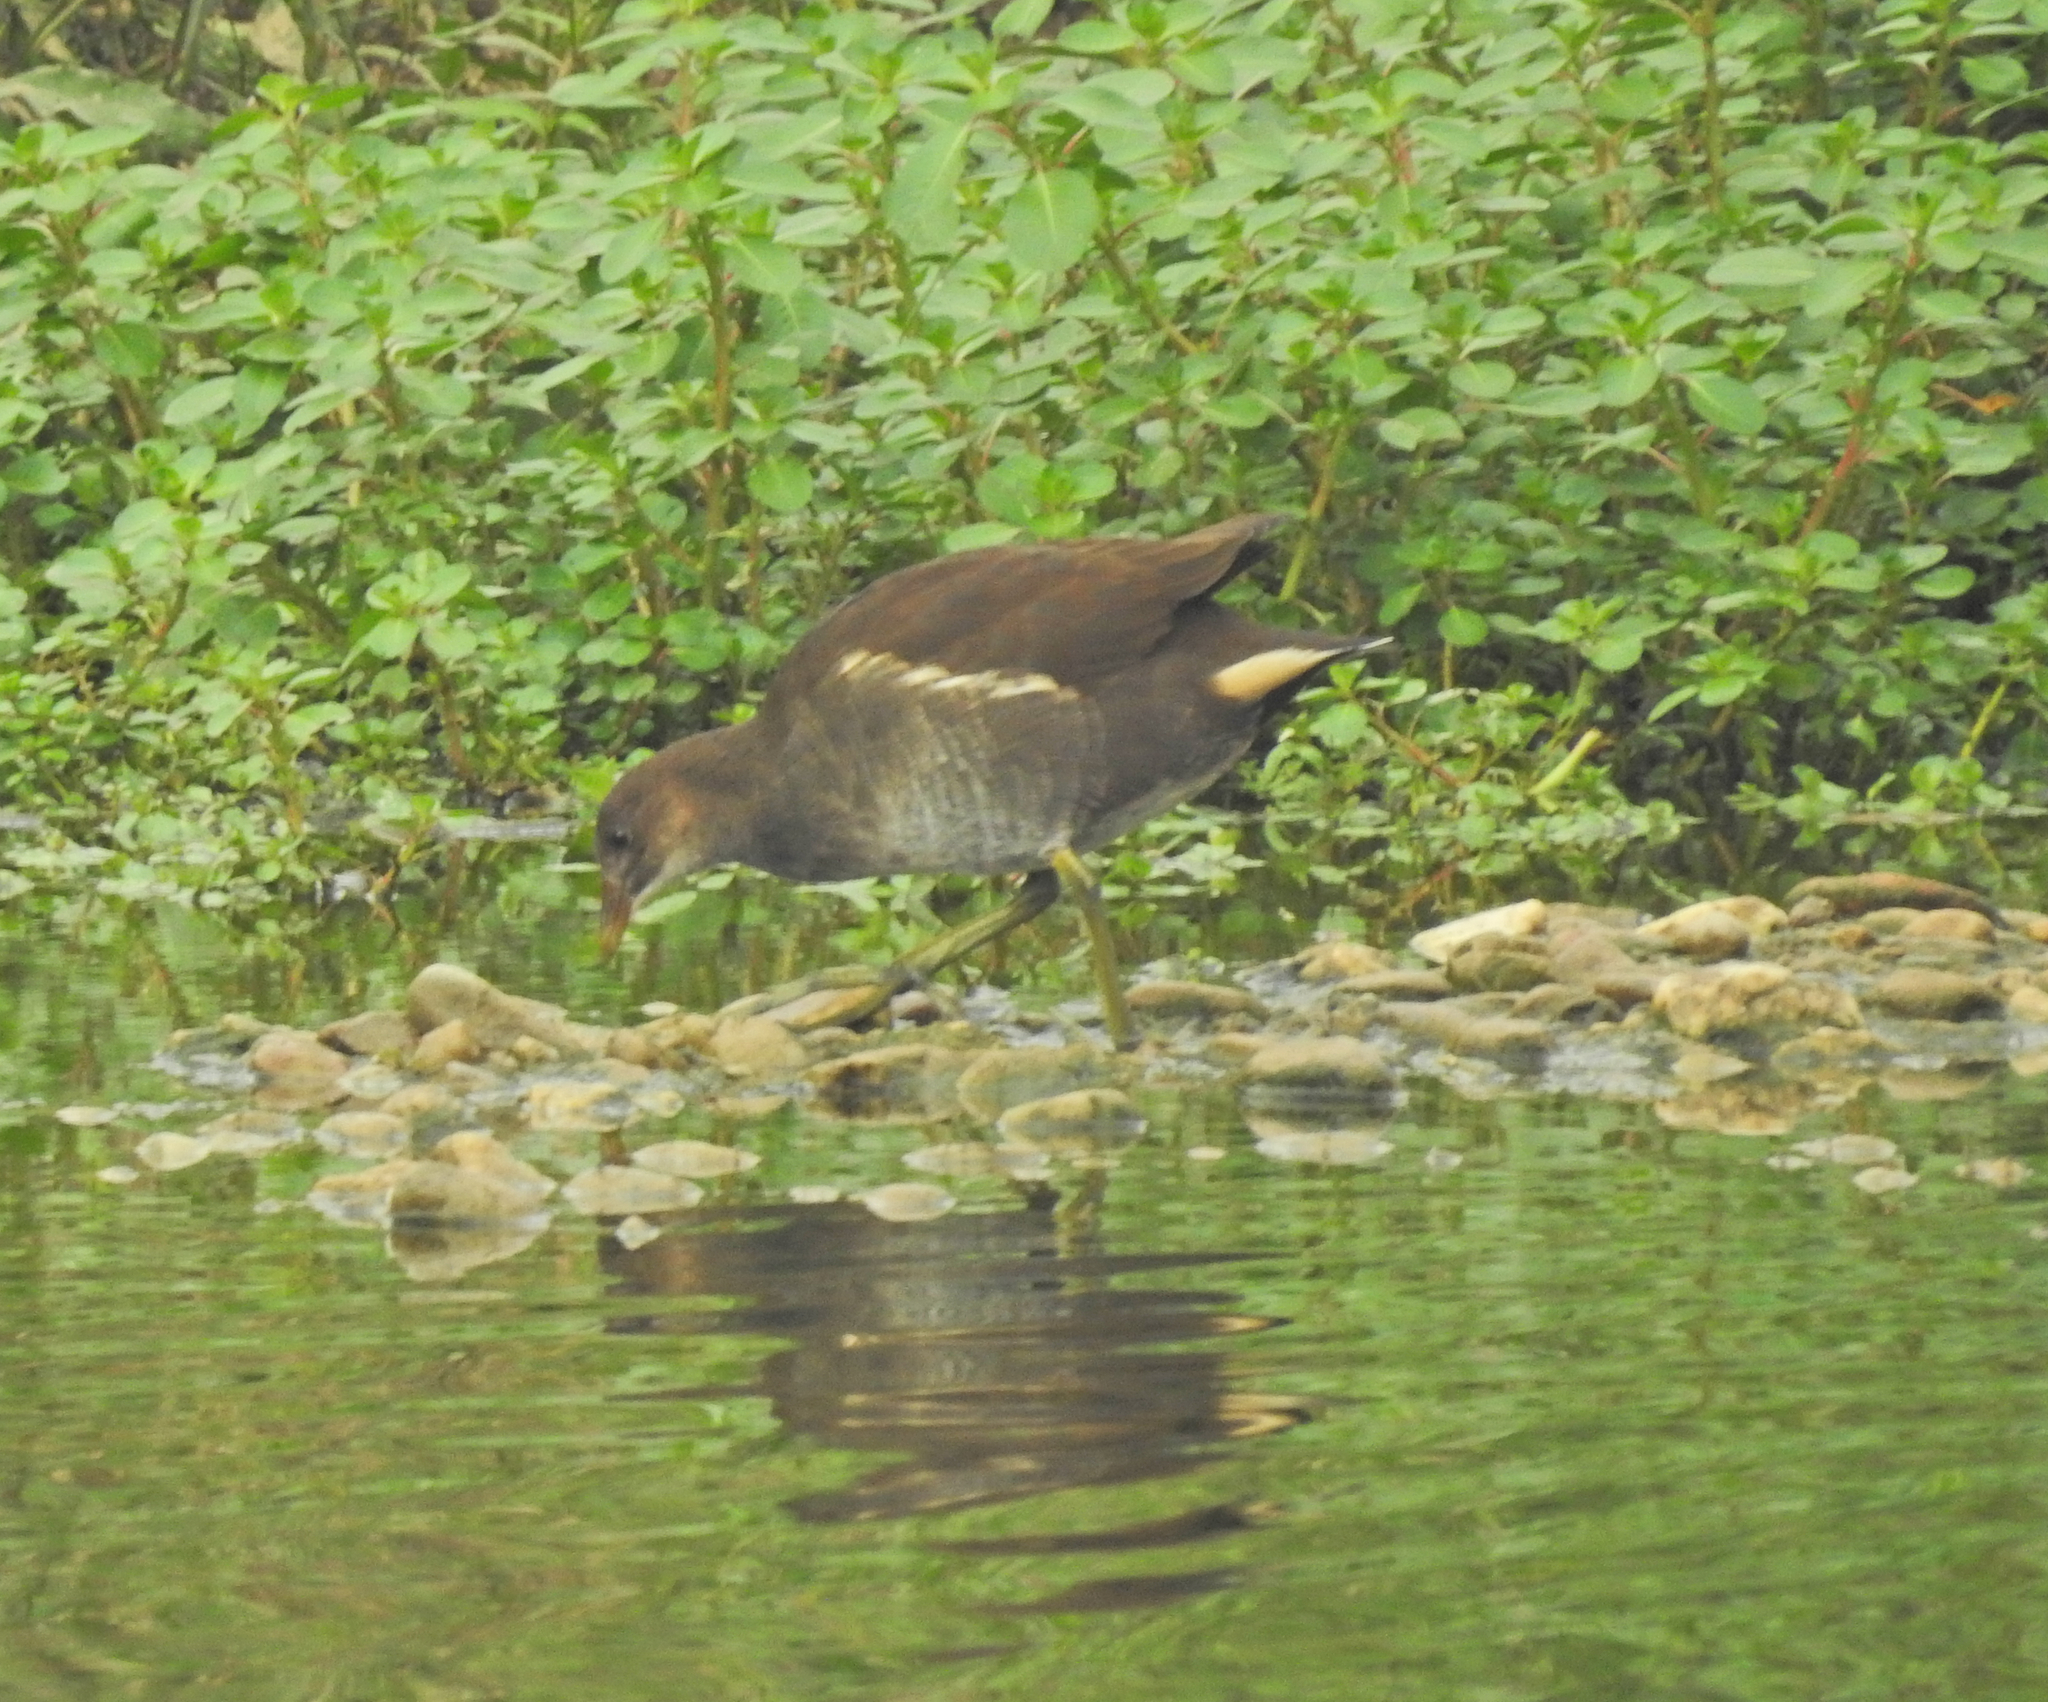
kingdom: Animalia
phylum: Chordata
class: Aves
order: Gruiformes
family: Rallidae
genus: Gallinula
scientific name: Gallinula chloropus
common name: Common moorhen
